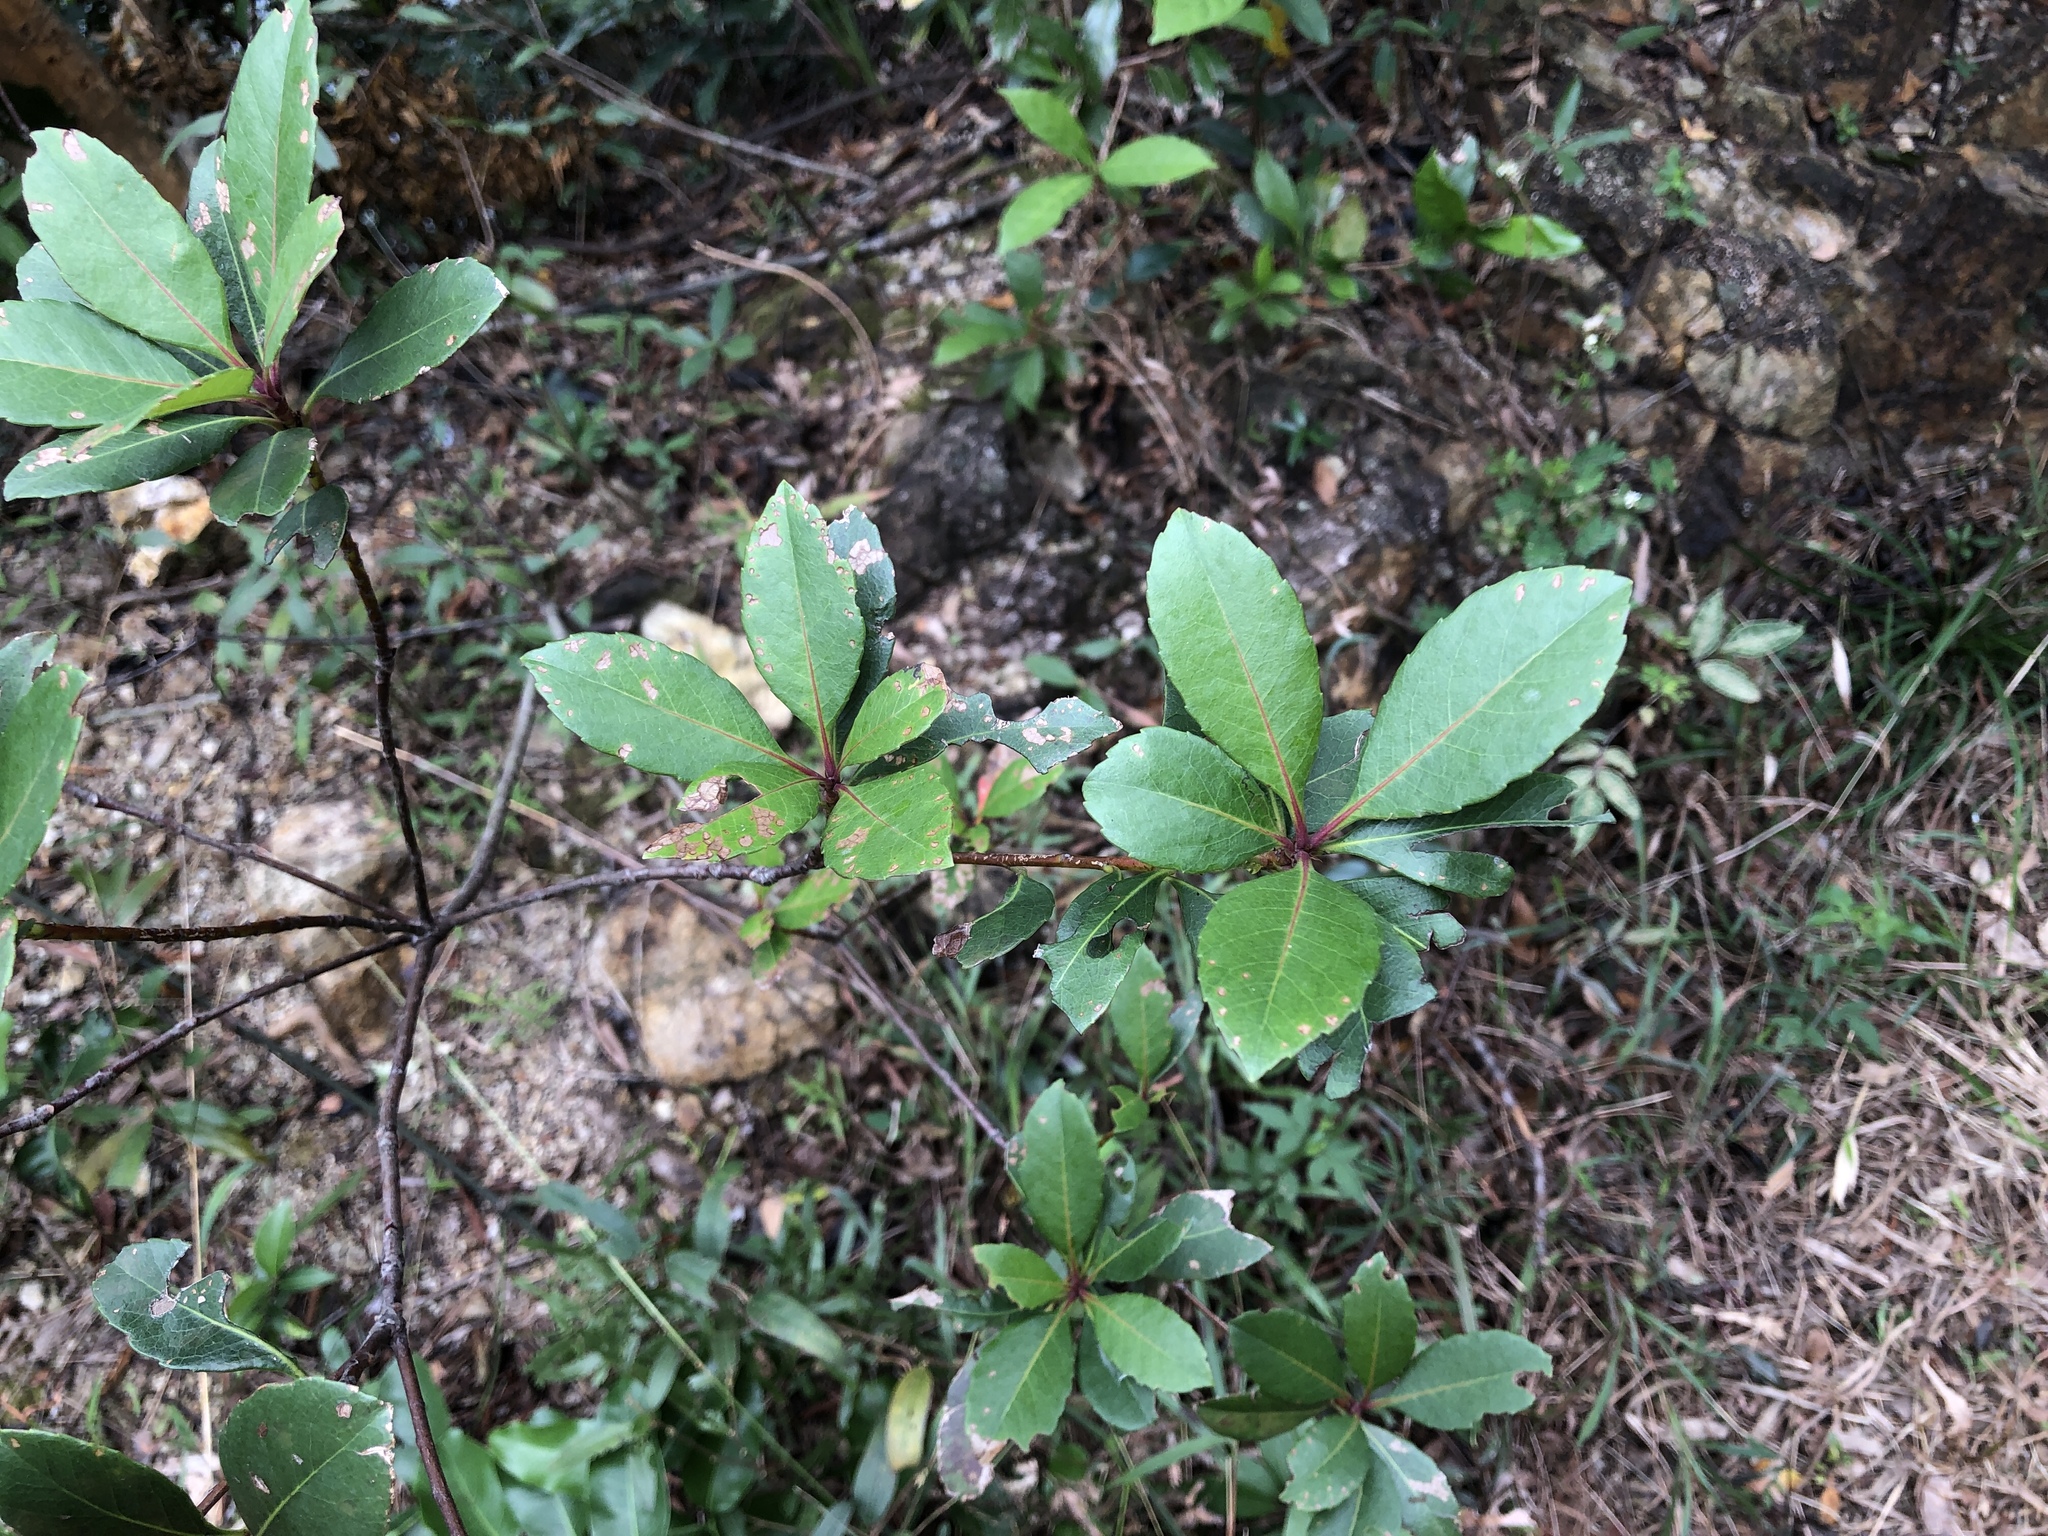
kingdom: Plantae
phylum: Tracheophyta
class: Magnoliopsida
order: Rosales
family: Rosaceae
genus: Rhaphiolepis
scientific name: Rhaphiolepis indica
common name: India-hawthorn
